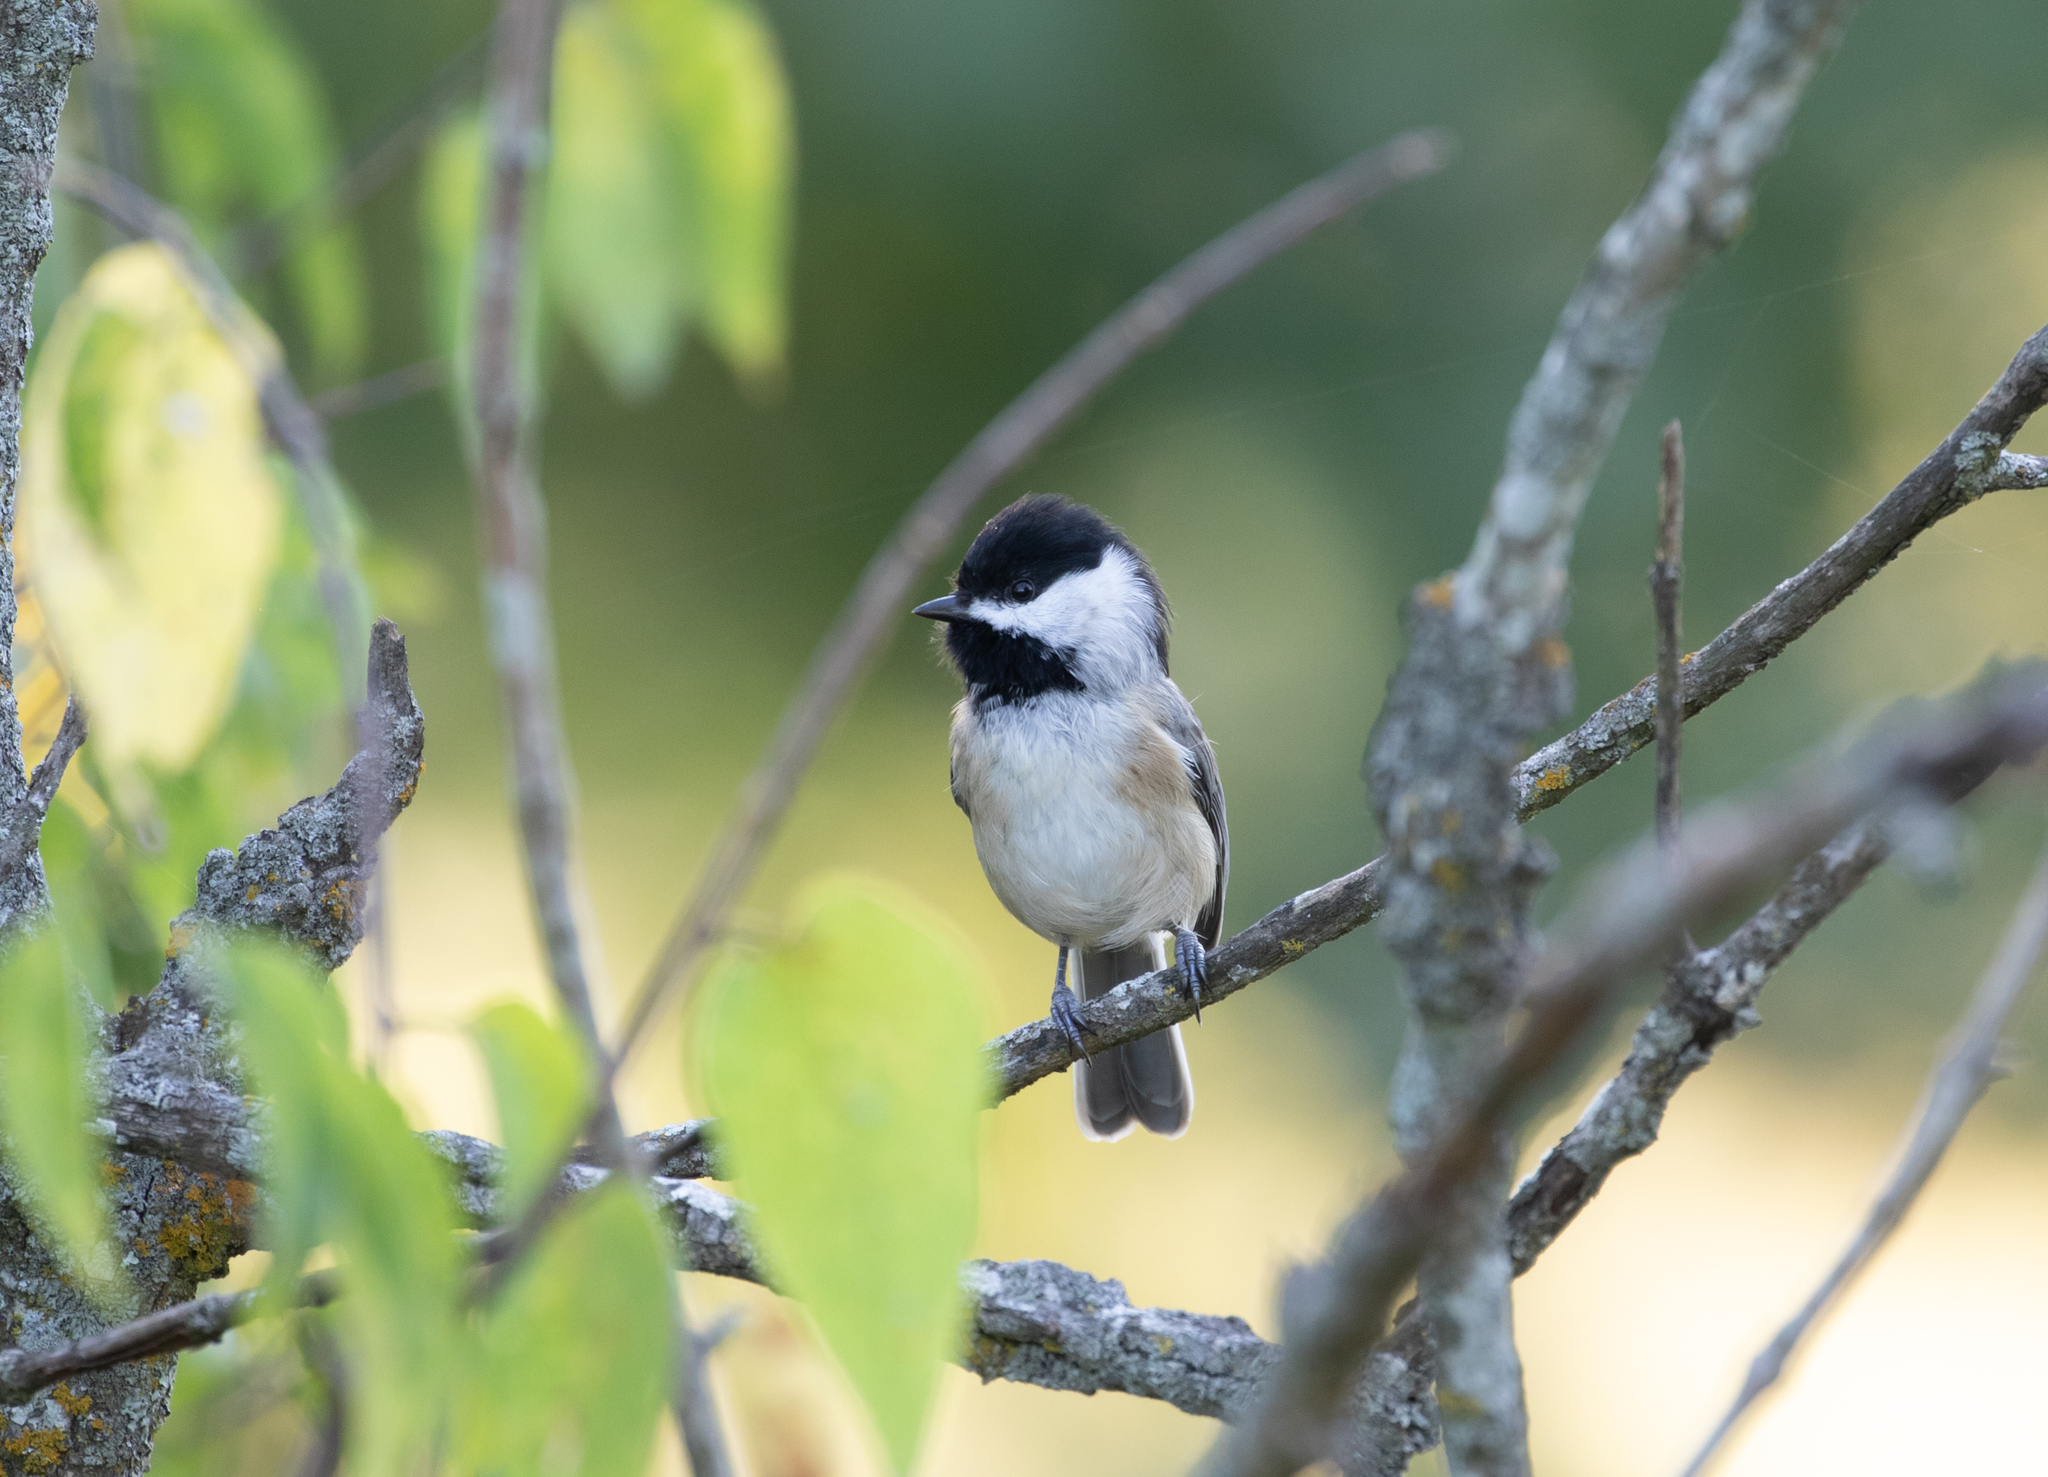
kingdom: Animalia
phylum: Chordata
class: Aves
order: Passeriformes
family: Paridae
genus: Poecile
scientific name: Poecile carolinensis
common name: Carolina chickadee
